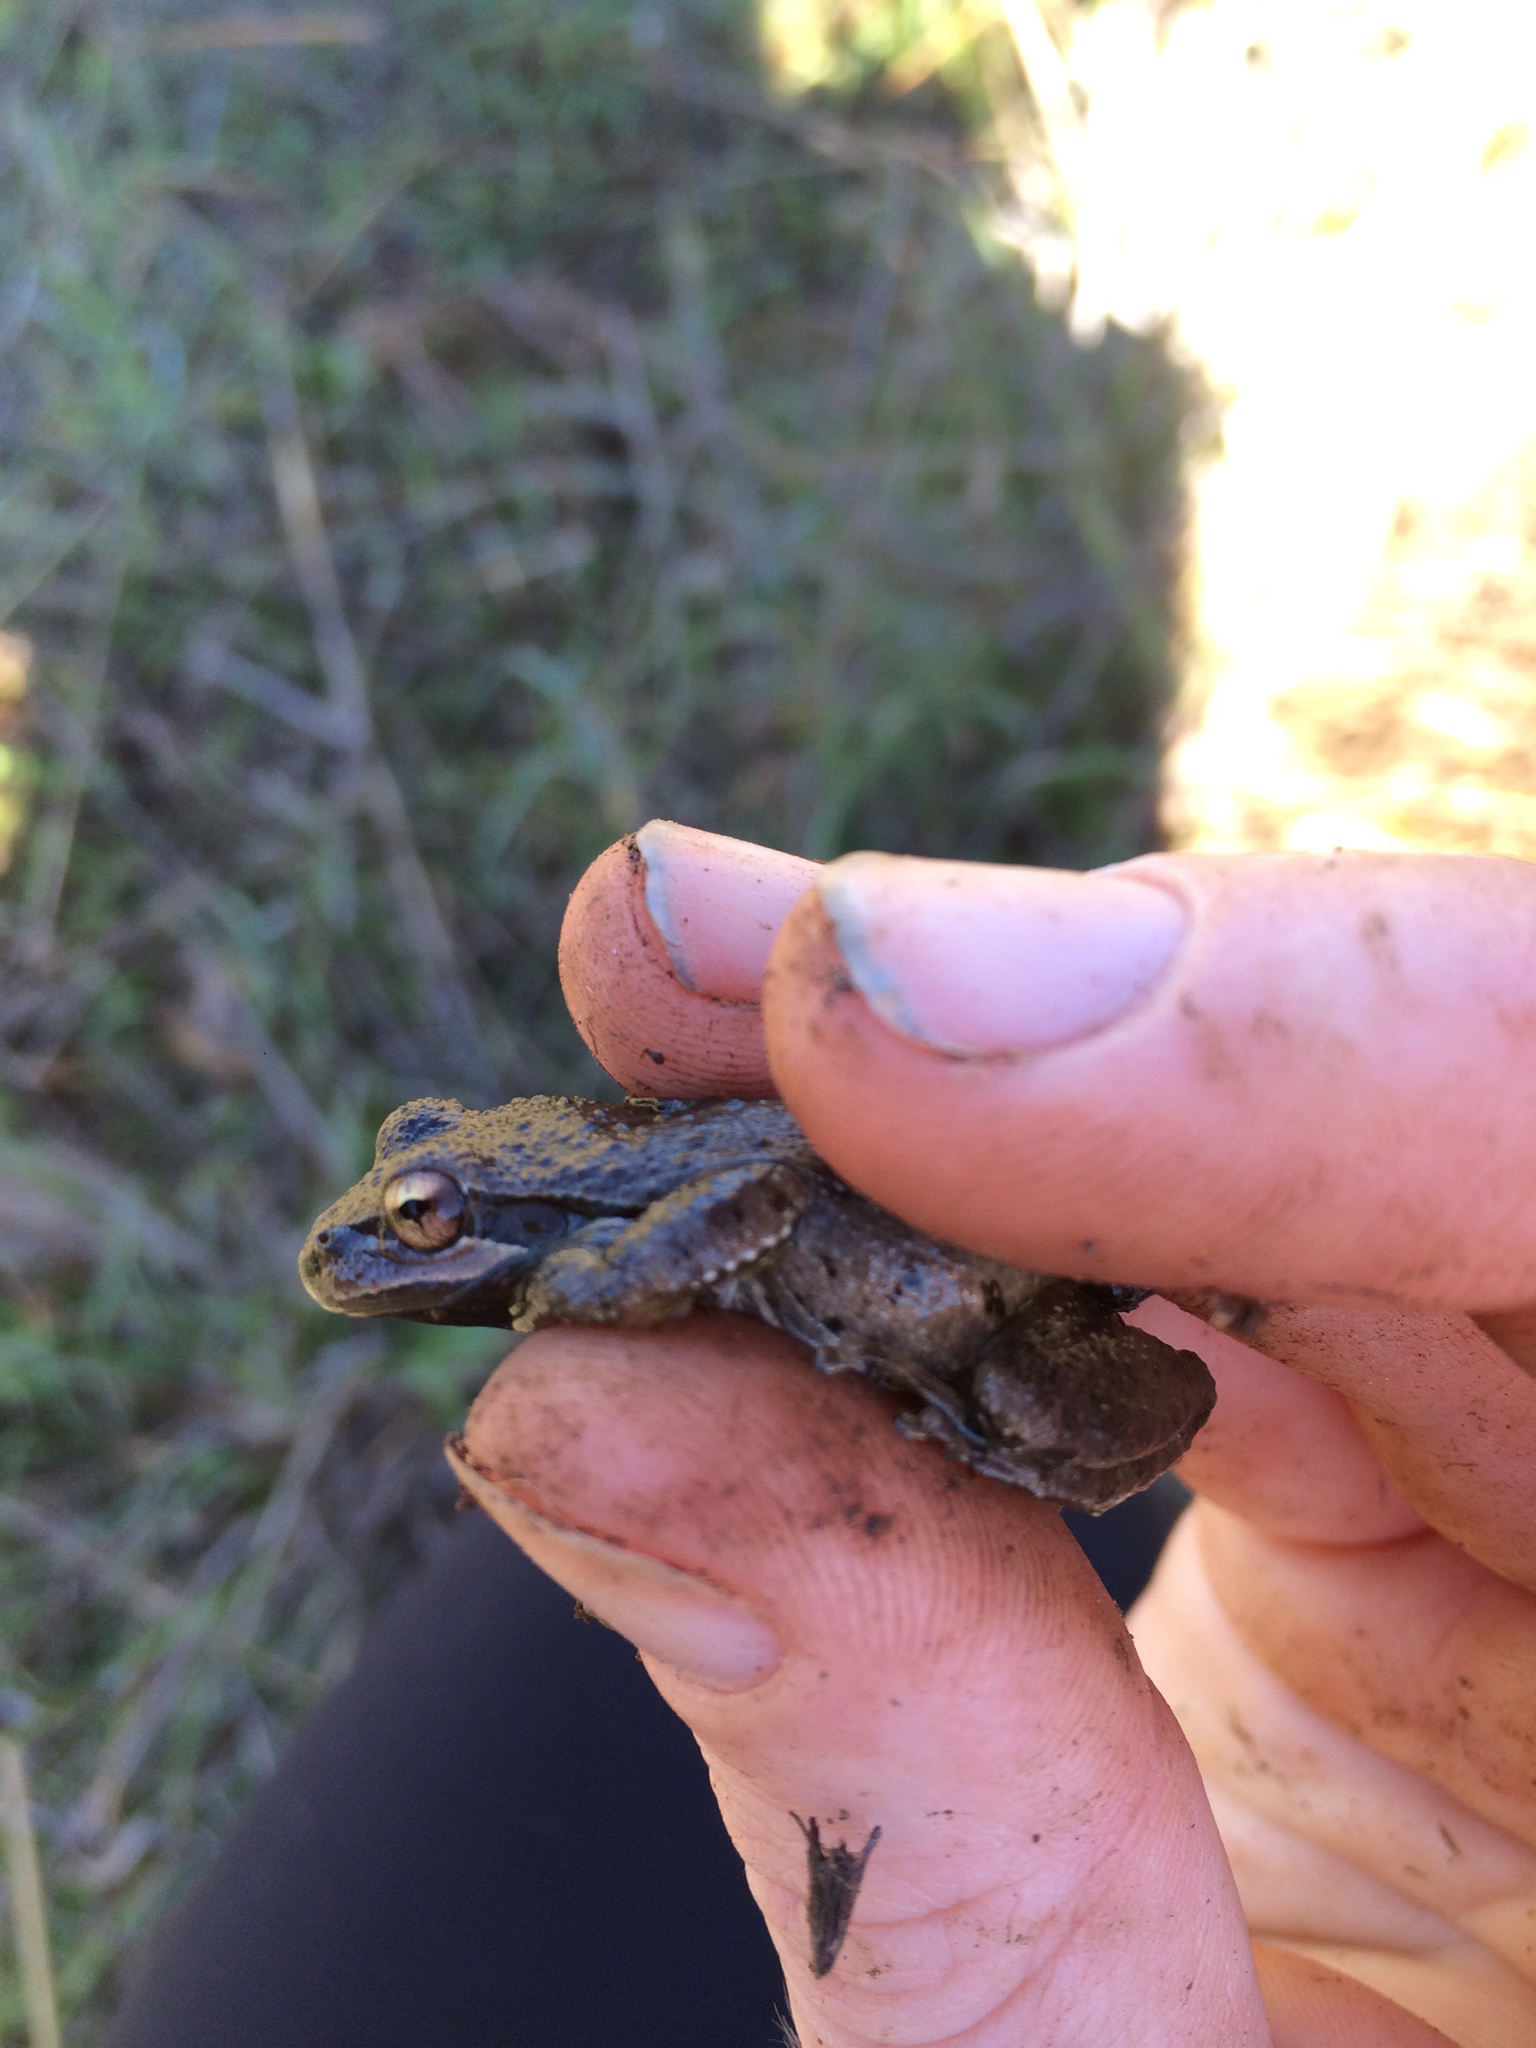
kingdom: Animalia
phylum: Chordata
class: Amphibia
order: Anura
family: Hylidae
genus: Pseudacris
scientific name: Pseudacris regilla
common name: Pacific chorus frog
